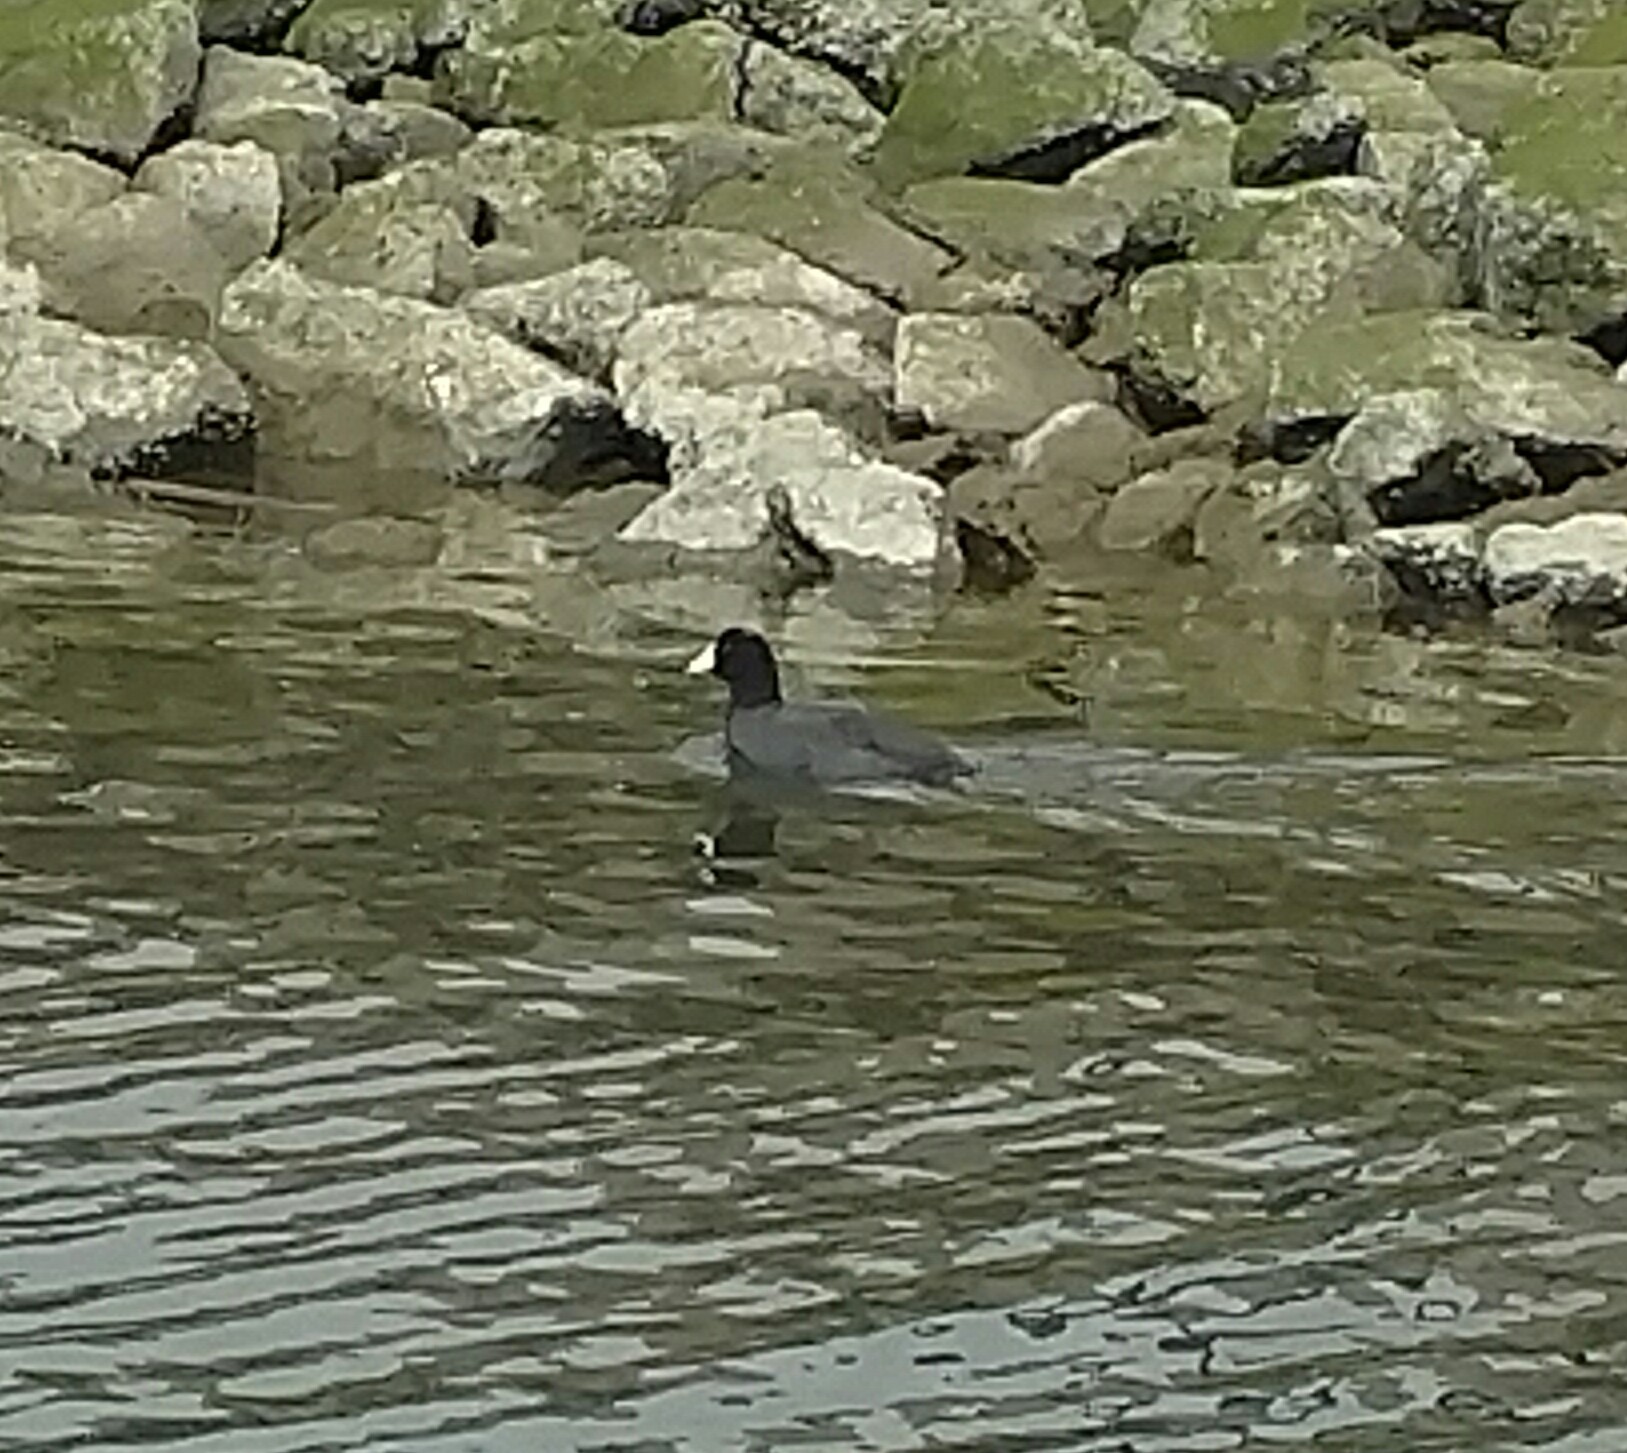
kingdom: Animalia
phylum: Chordata
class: Aves
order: Gruiformes
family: Rallidae
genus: Fulica
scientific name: Fulica americana
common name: American coot
